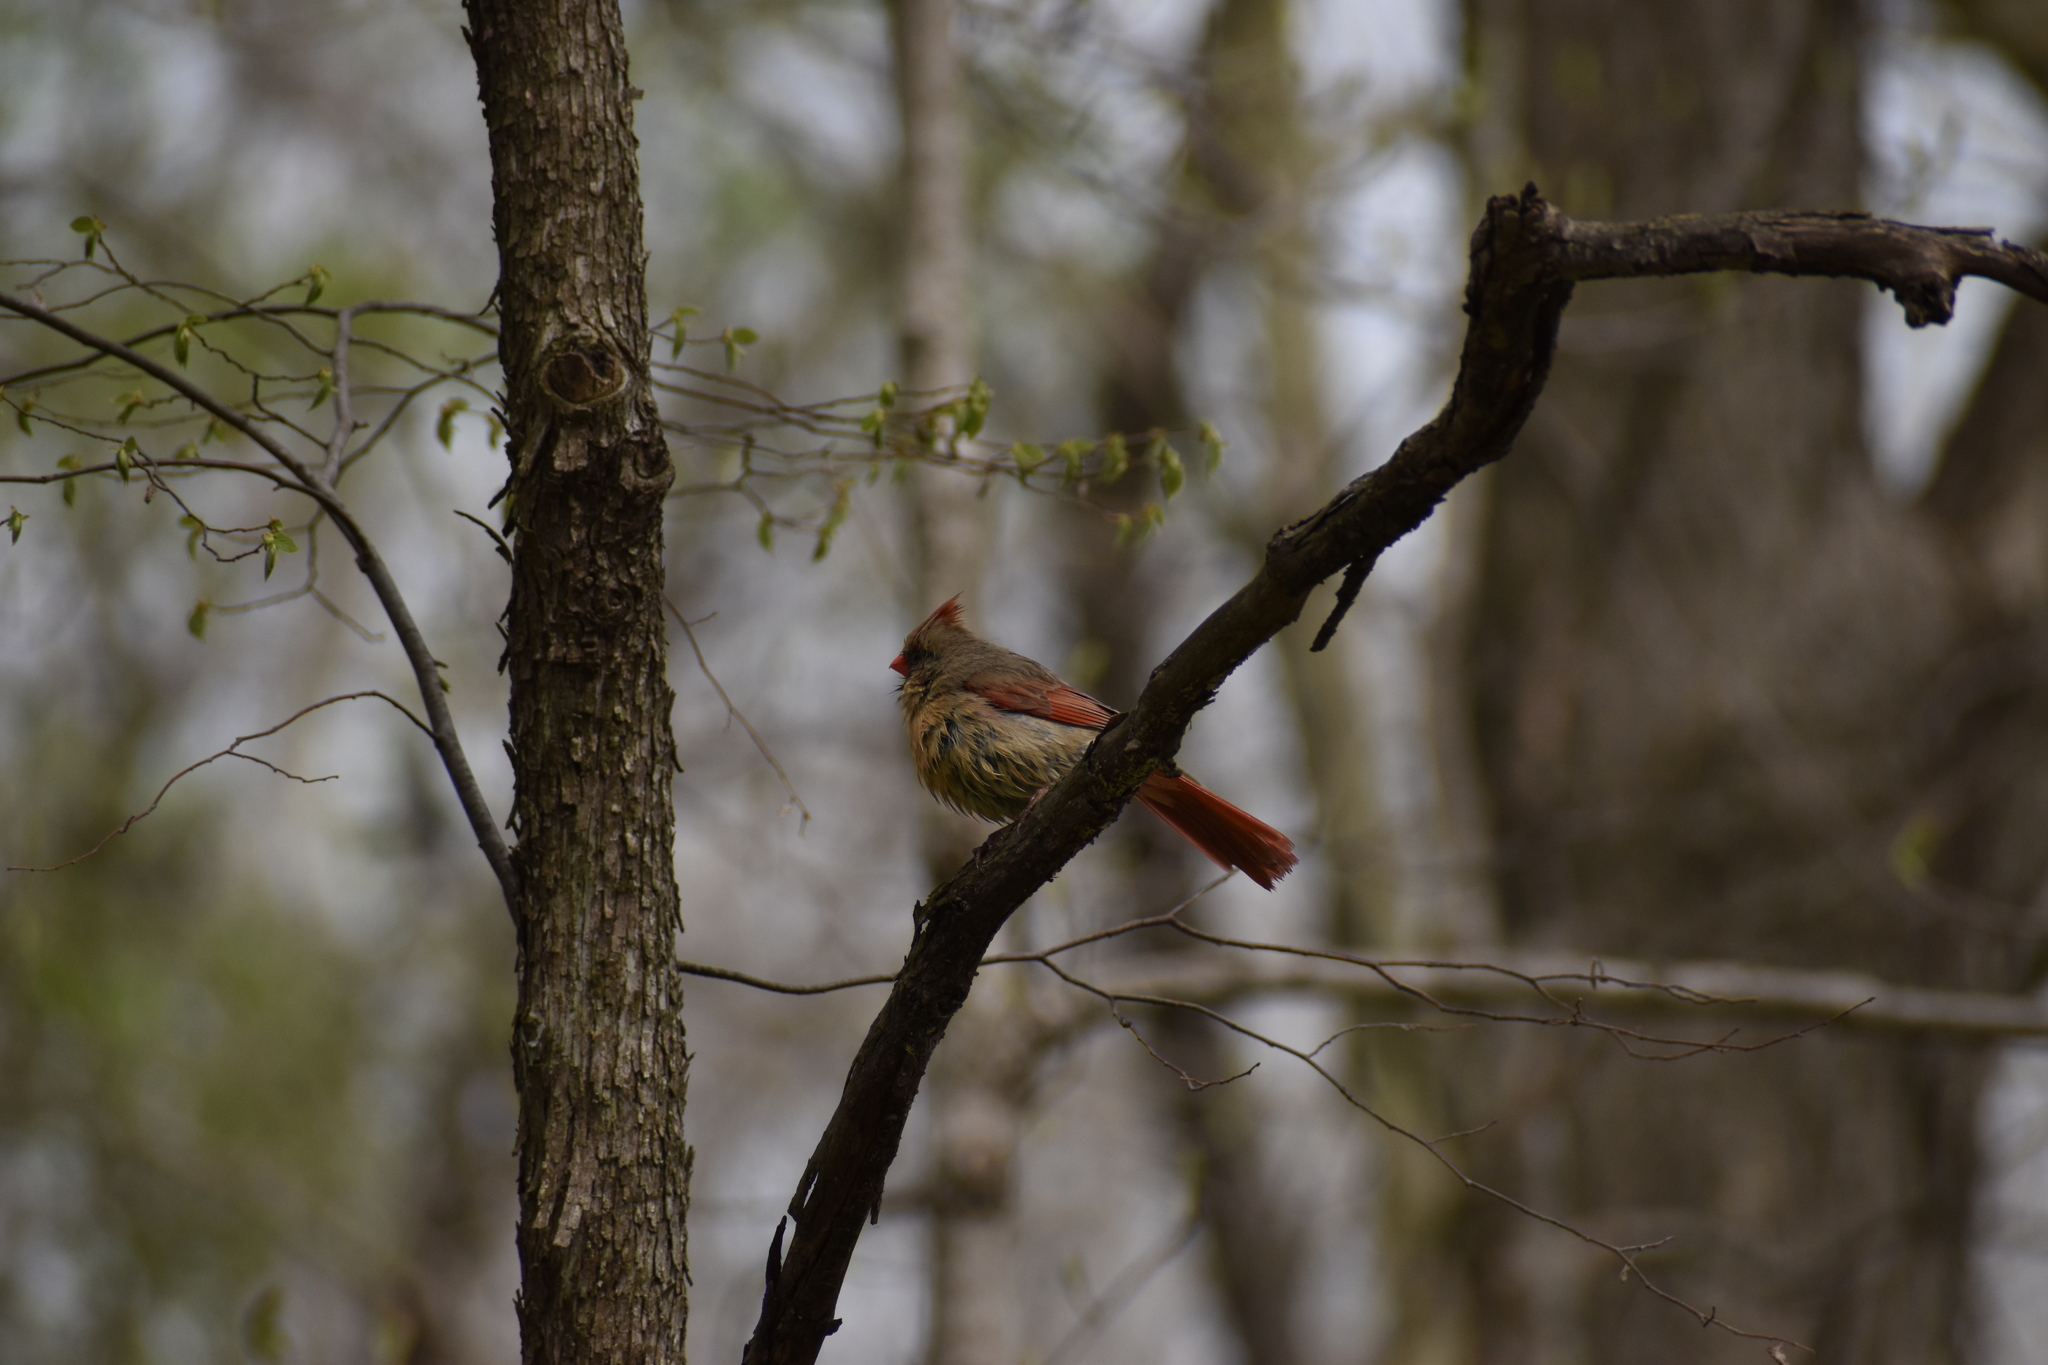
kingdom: Animalia
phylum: Chordata
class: Aves
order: Passeriformes
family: Cardinalidae
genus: Cardinalis
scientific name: Cardinalis cardinalis
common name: Northern cardinal
